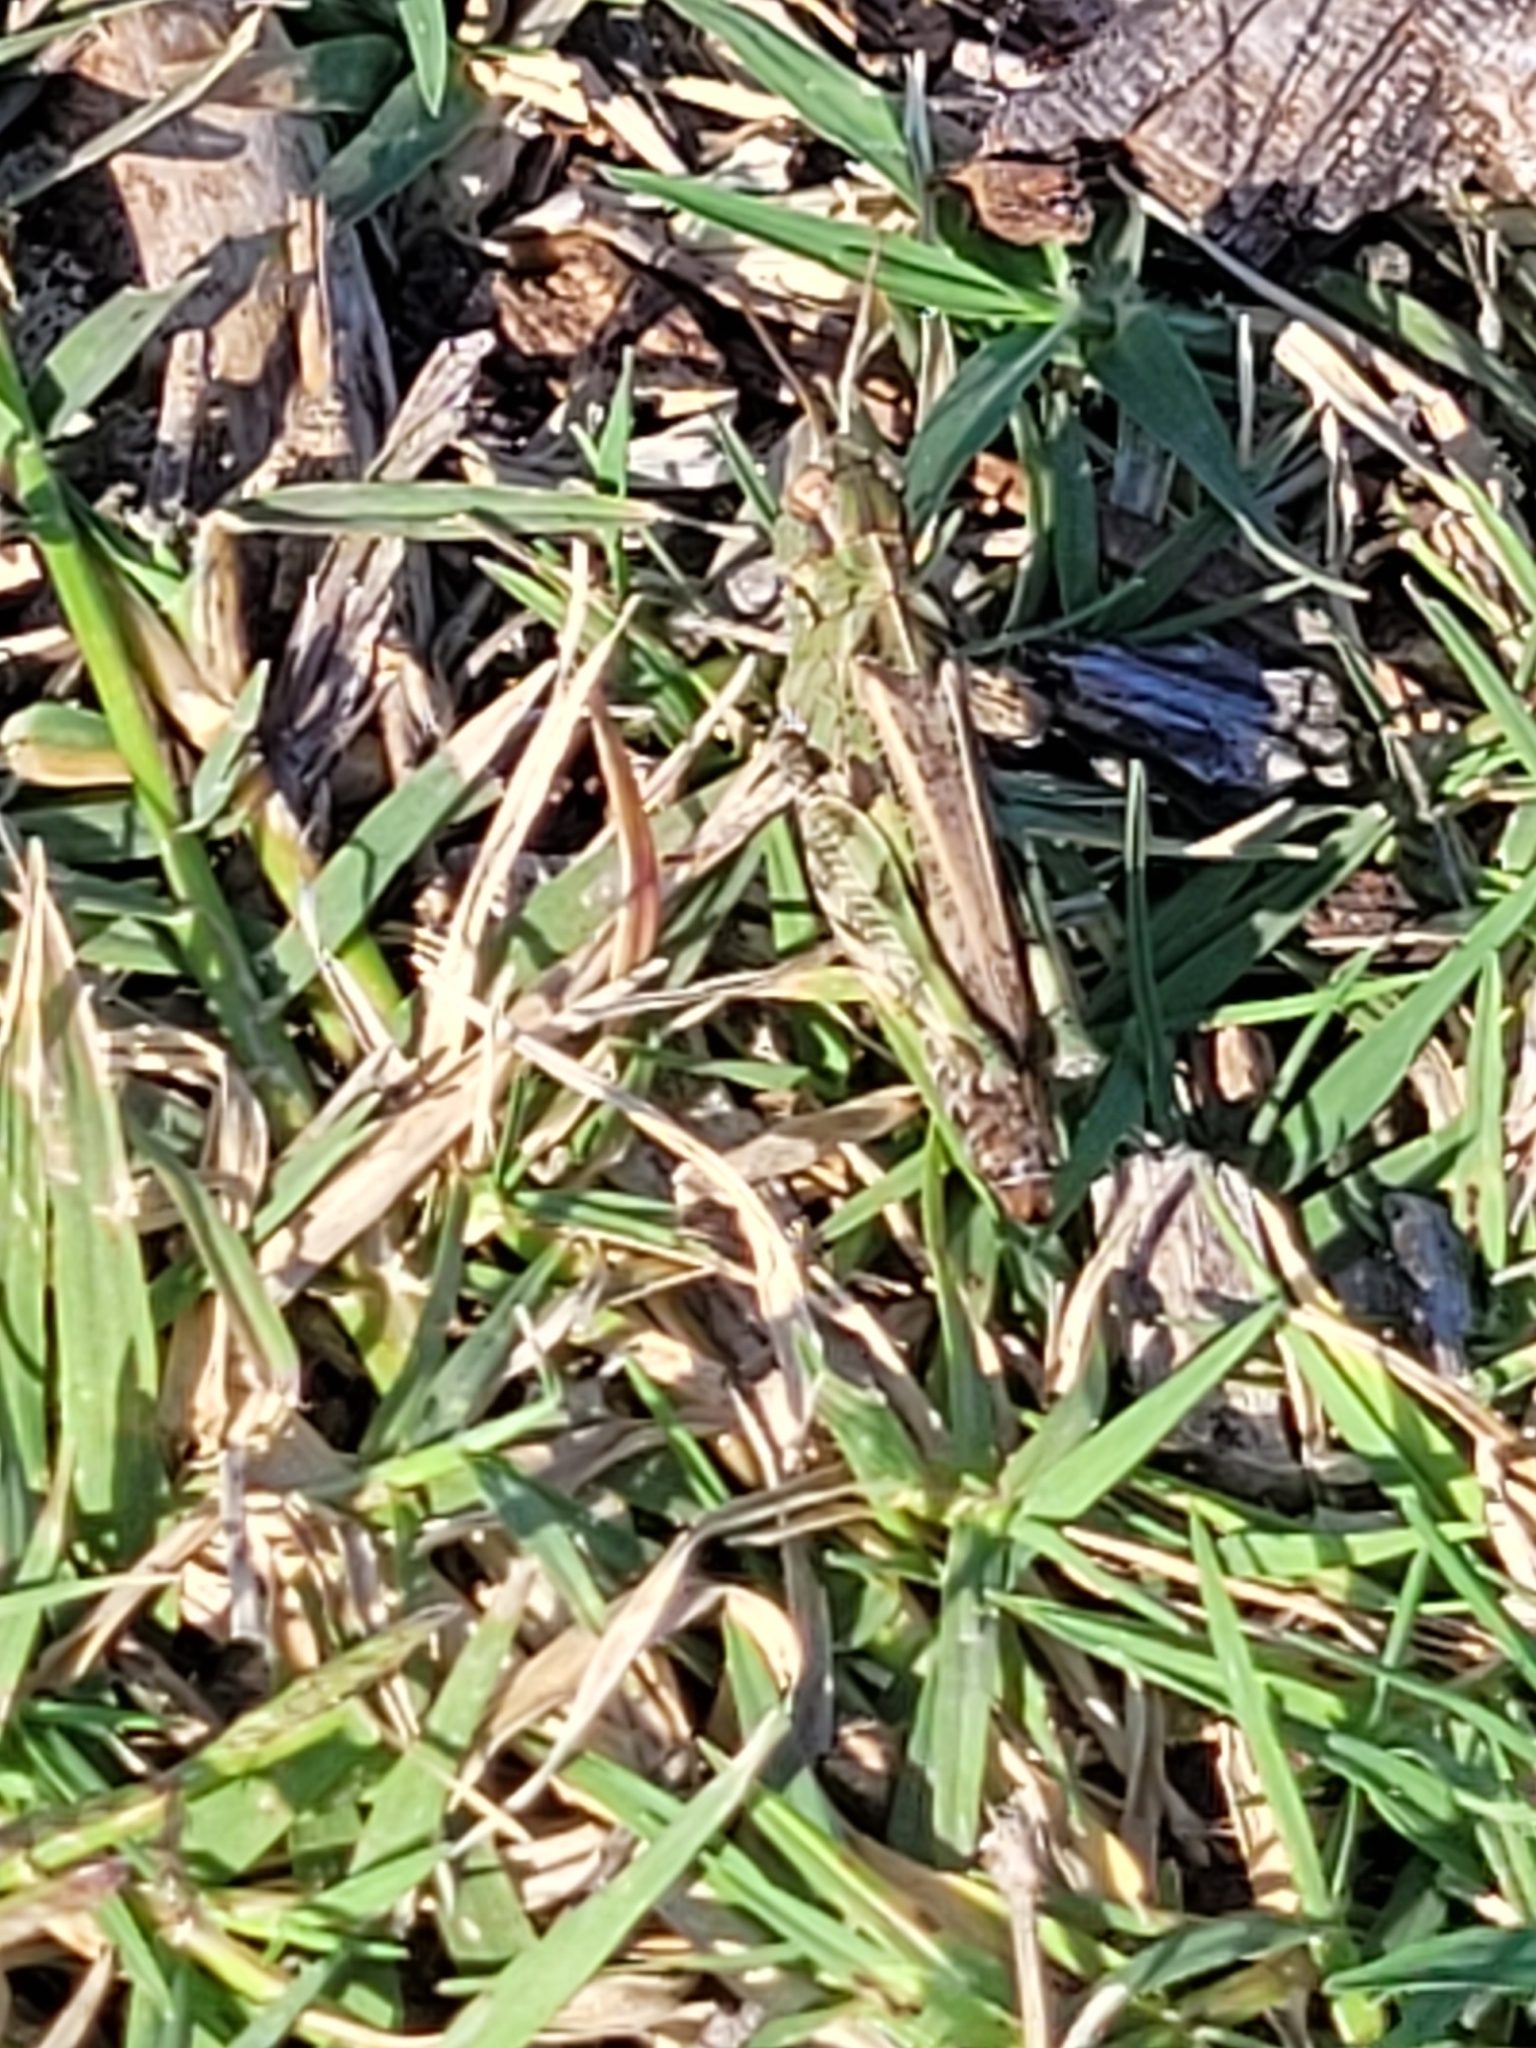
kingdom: Animalia
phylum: Arthropoda
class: Insecta
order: Orthoptera
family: Acrididae
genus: Encoptolophus
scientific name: Encoptolophus costalis
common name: Dusky grasshopper
